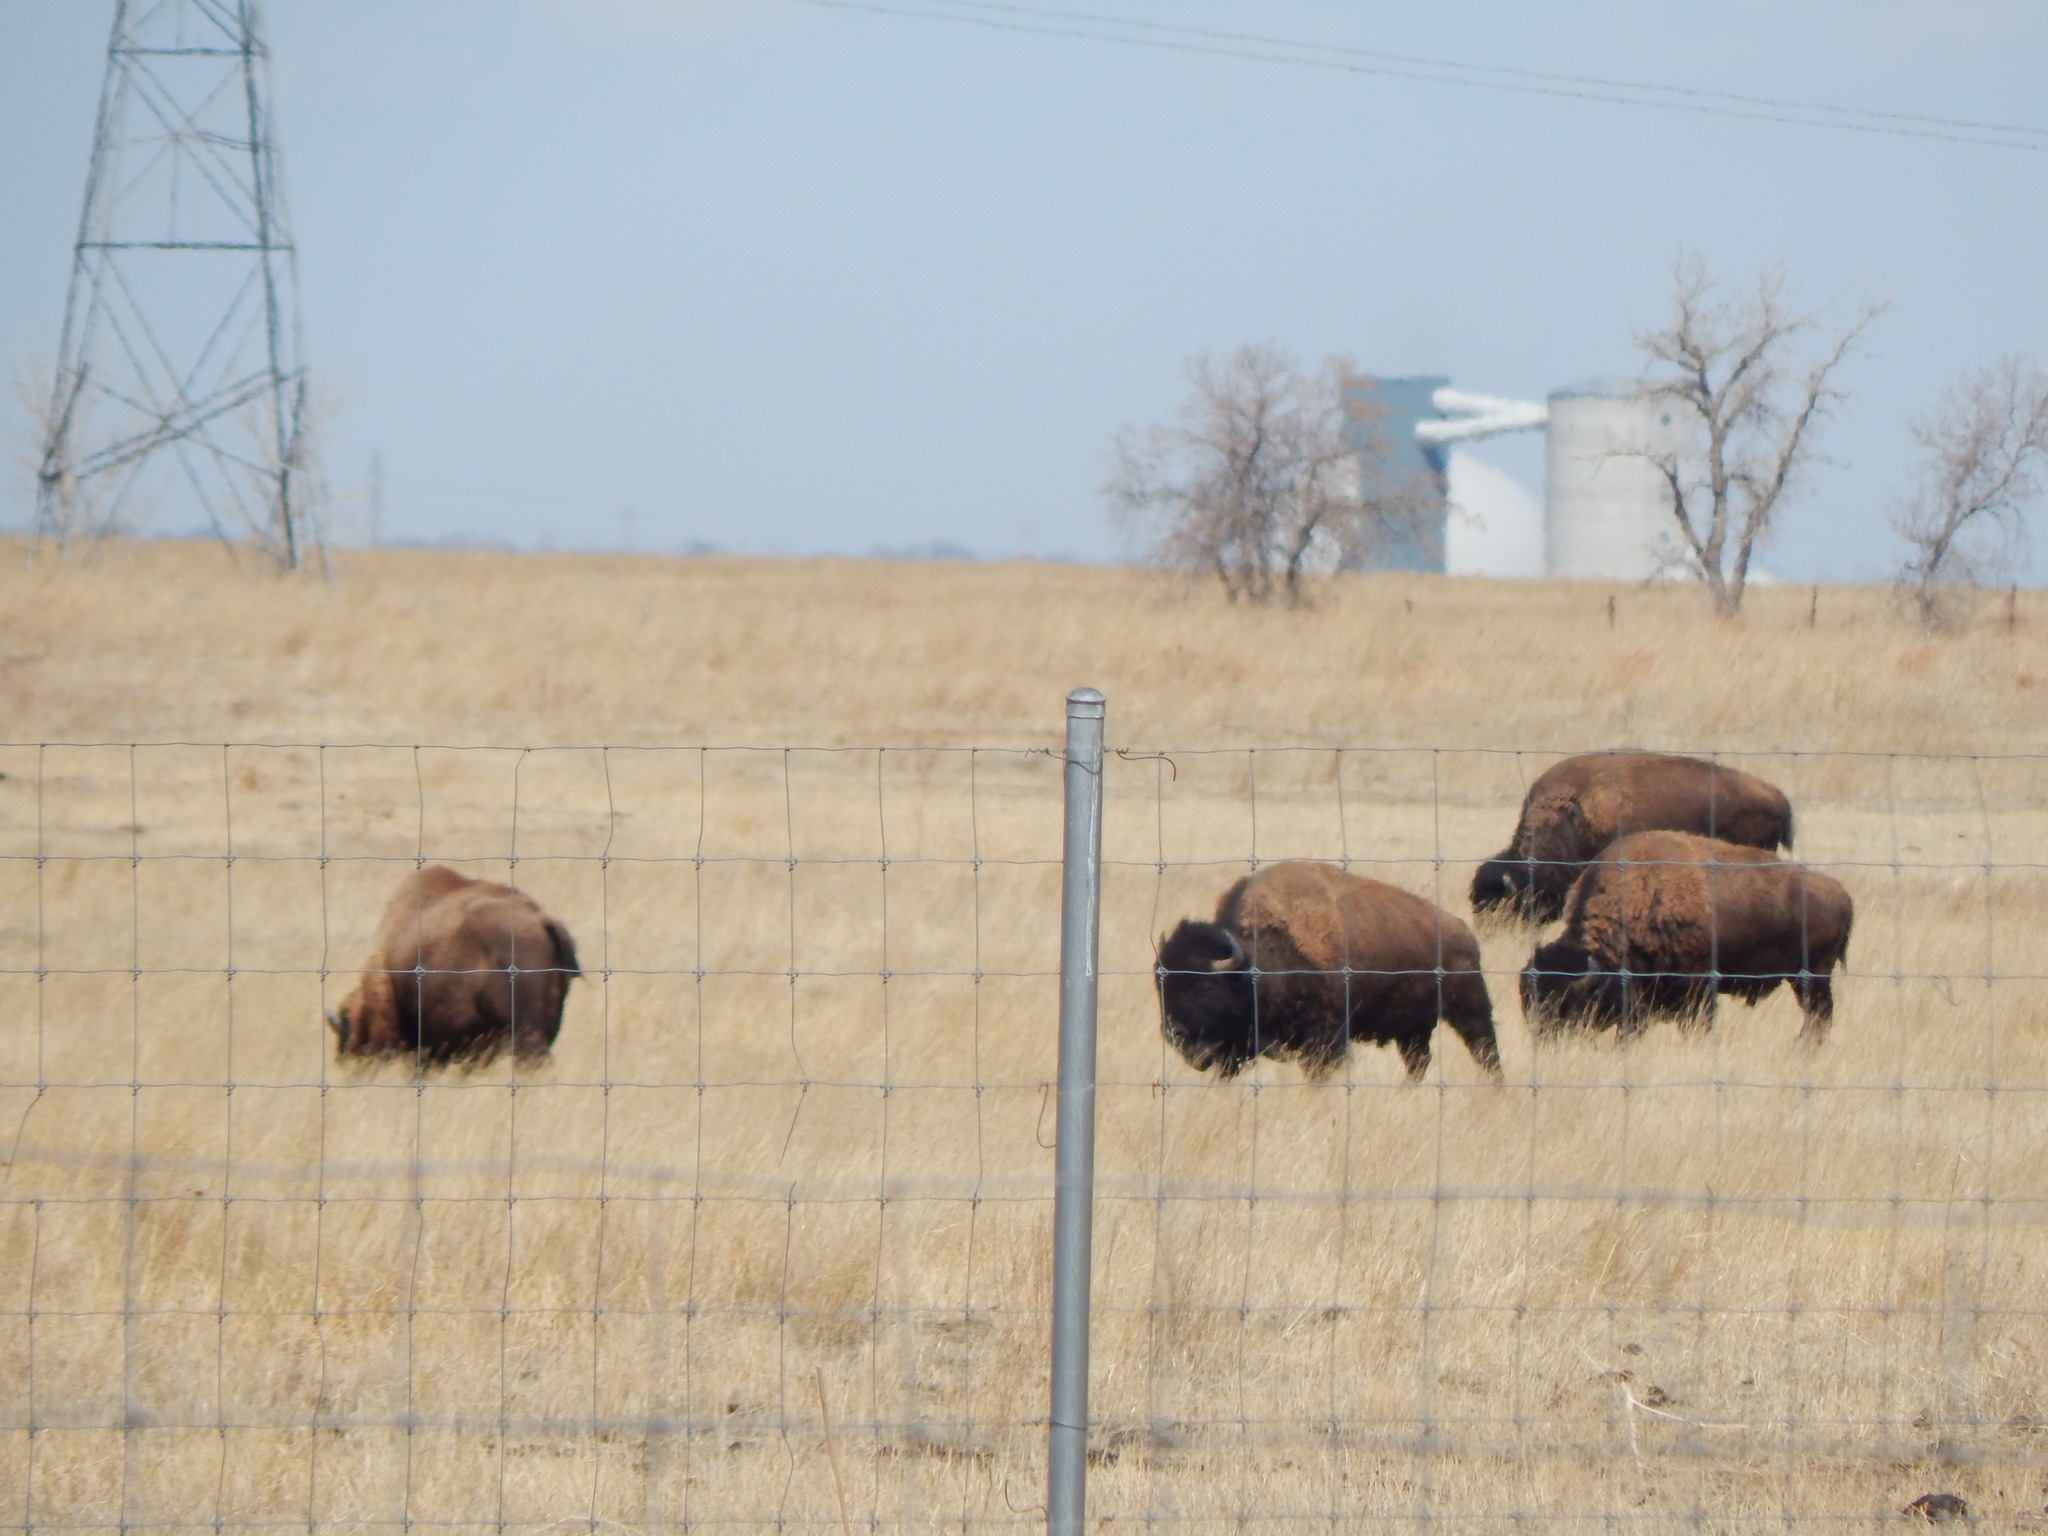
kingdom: Animalia
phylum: Chordata
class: Mammalia
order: Artiodactyla
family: Bovidae
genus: Bison
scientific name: Bison bison
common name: American bison
